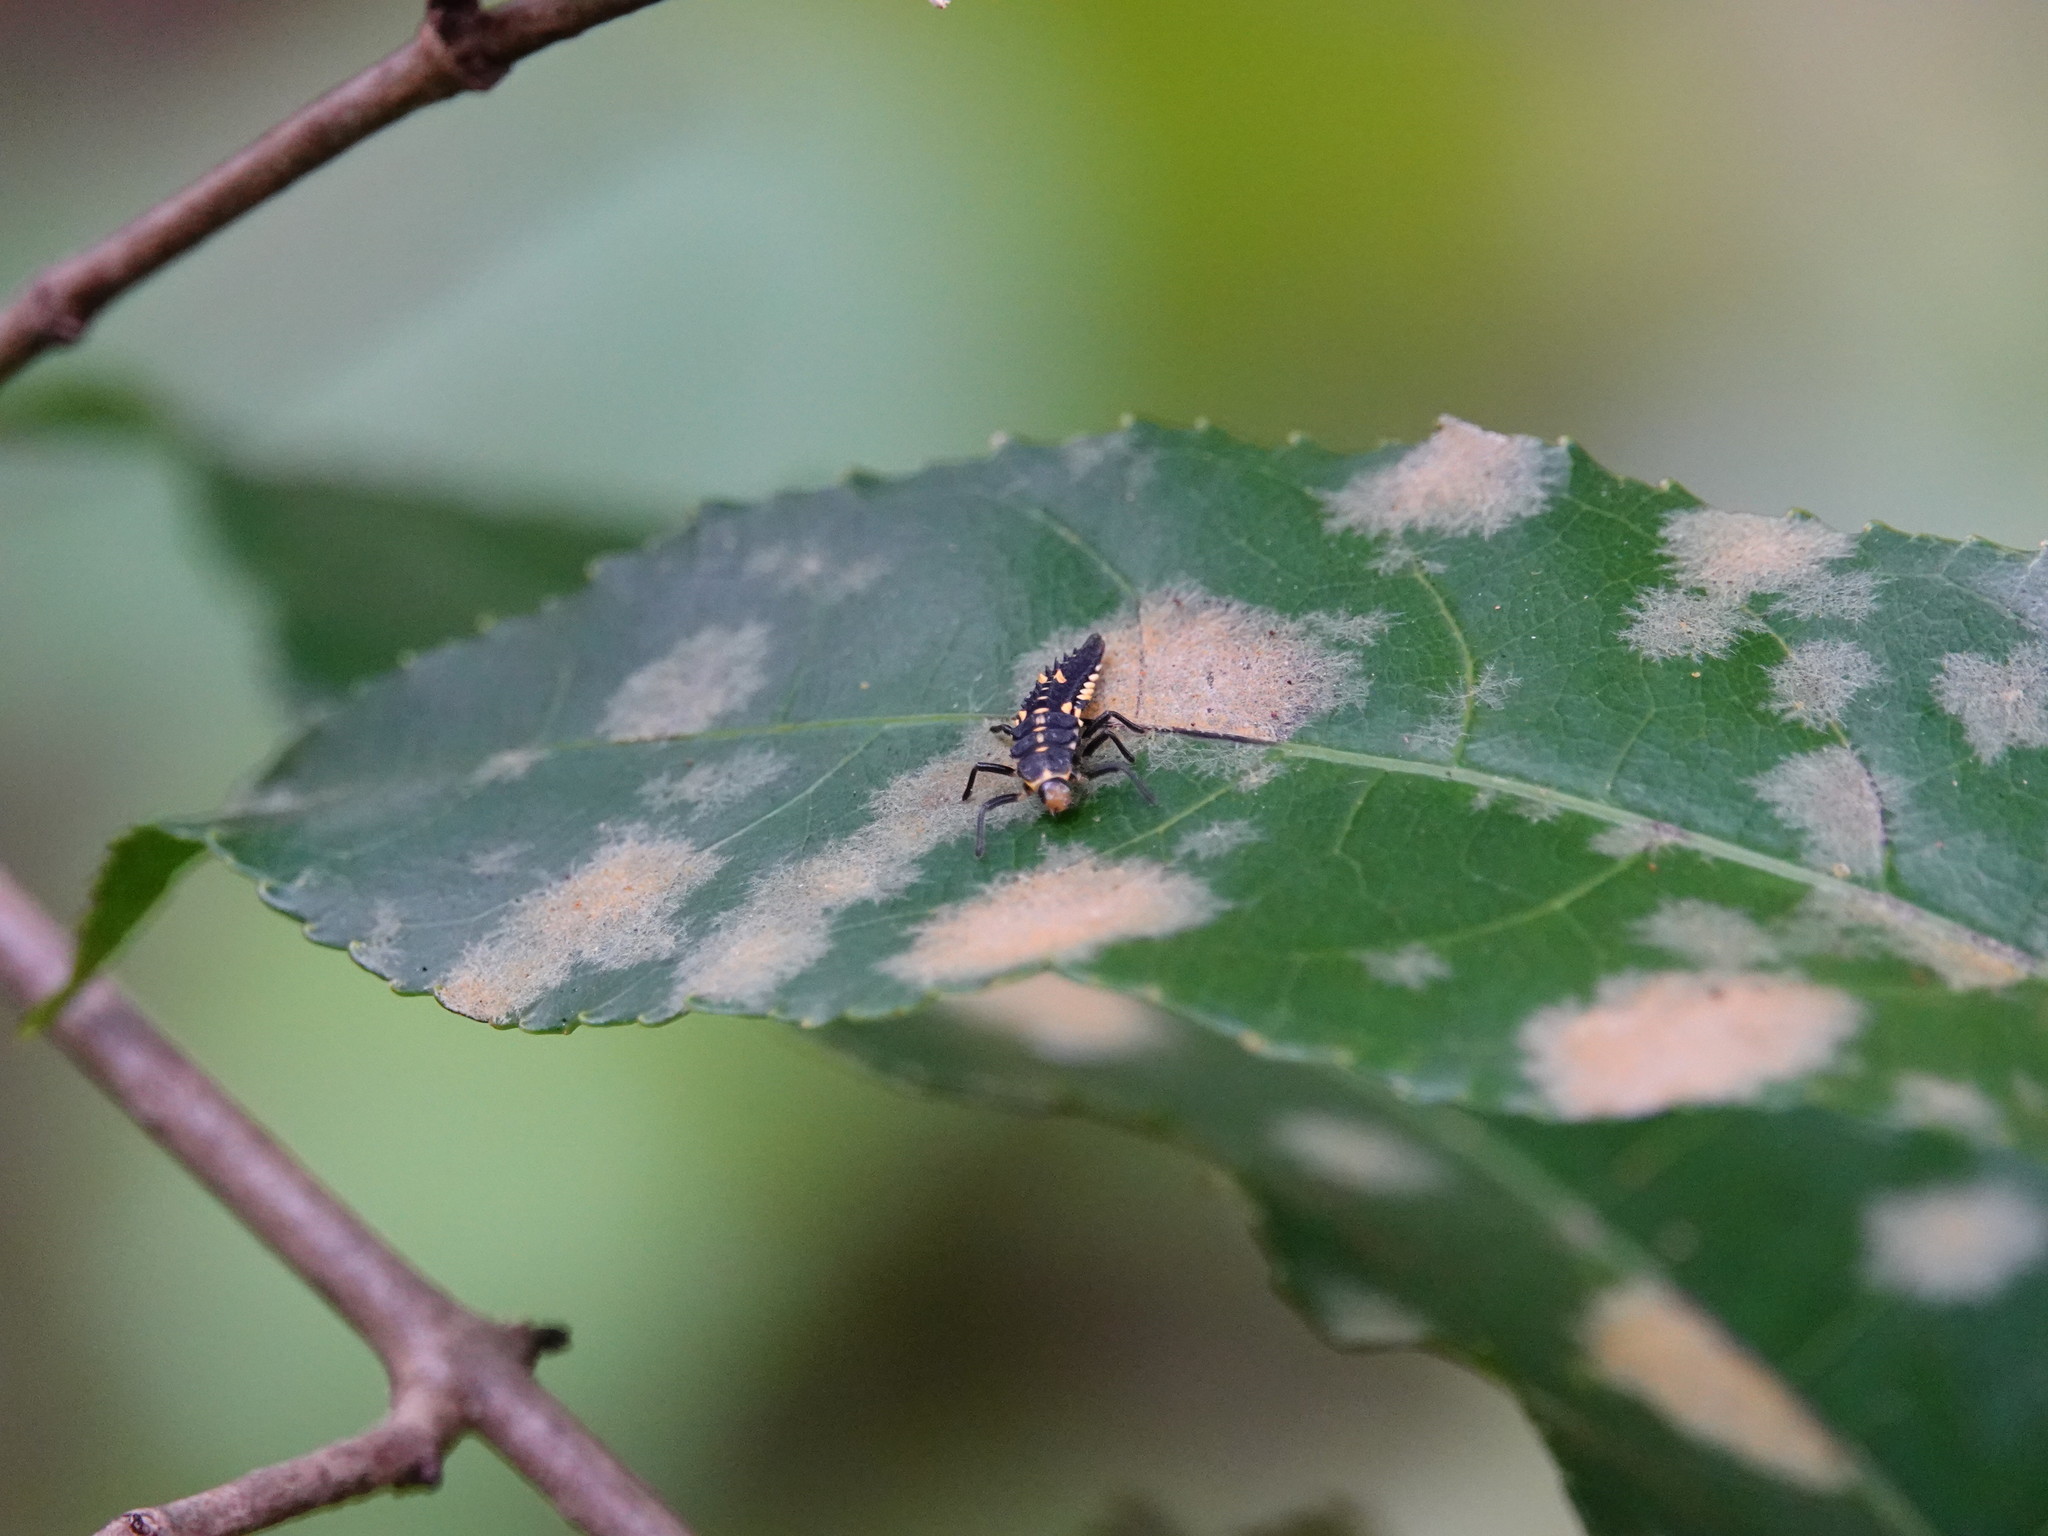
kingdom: Animalia
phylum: Arthropoda
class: Insecta
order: Coleoptera
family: Coccinellidae
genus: Cleobora
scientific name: Cleobora
